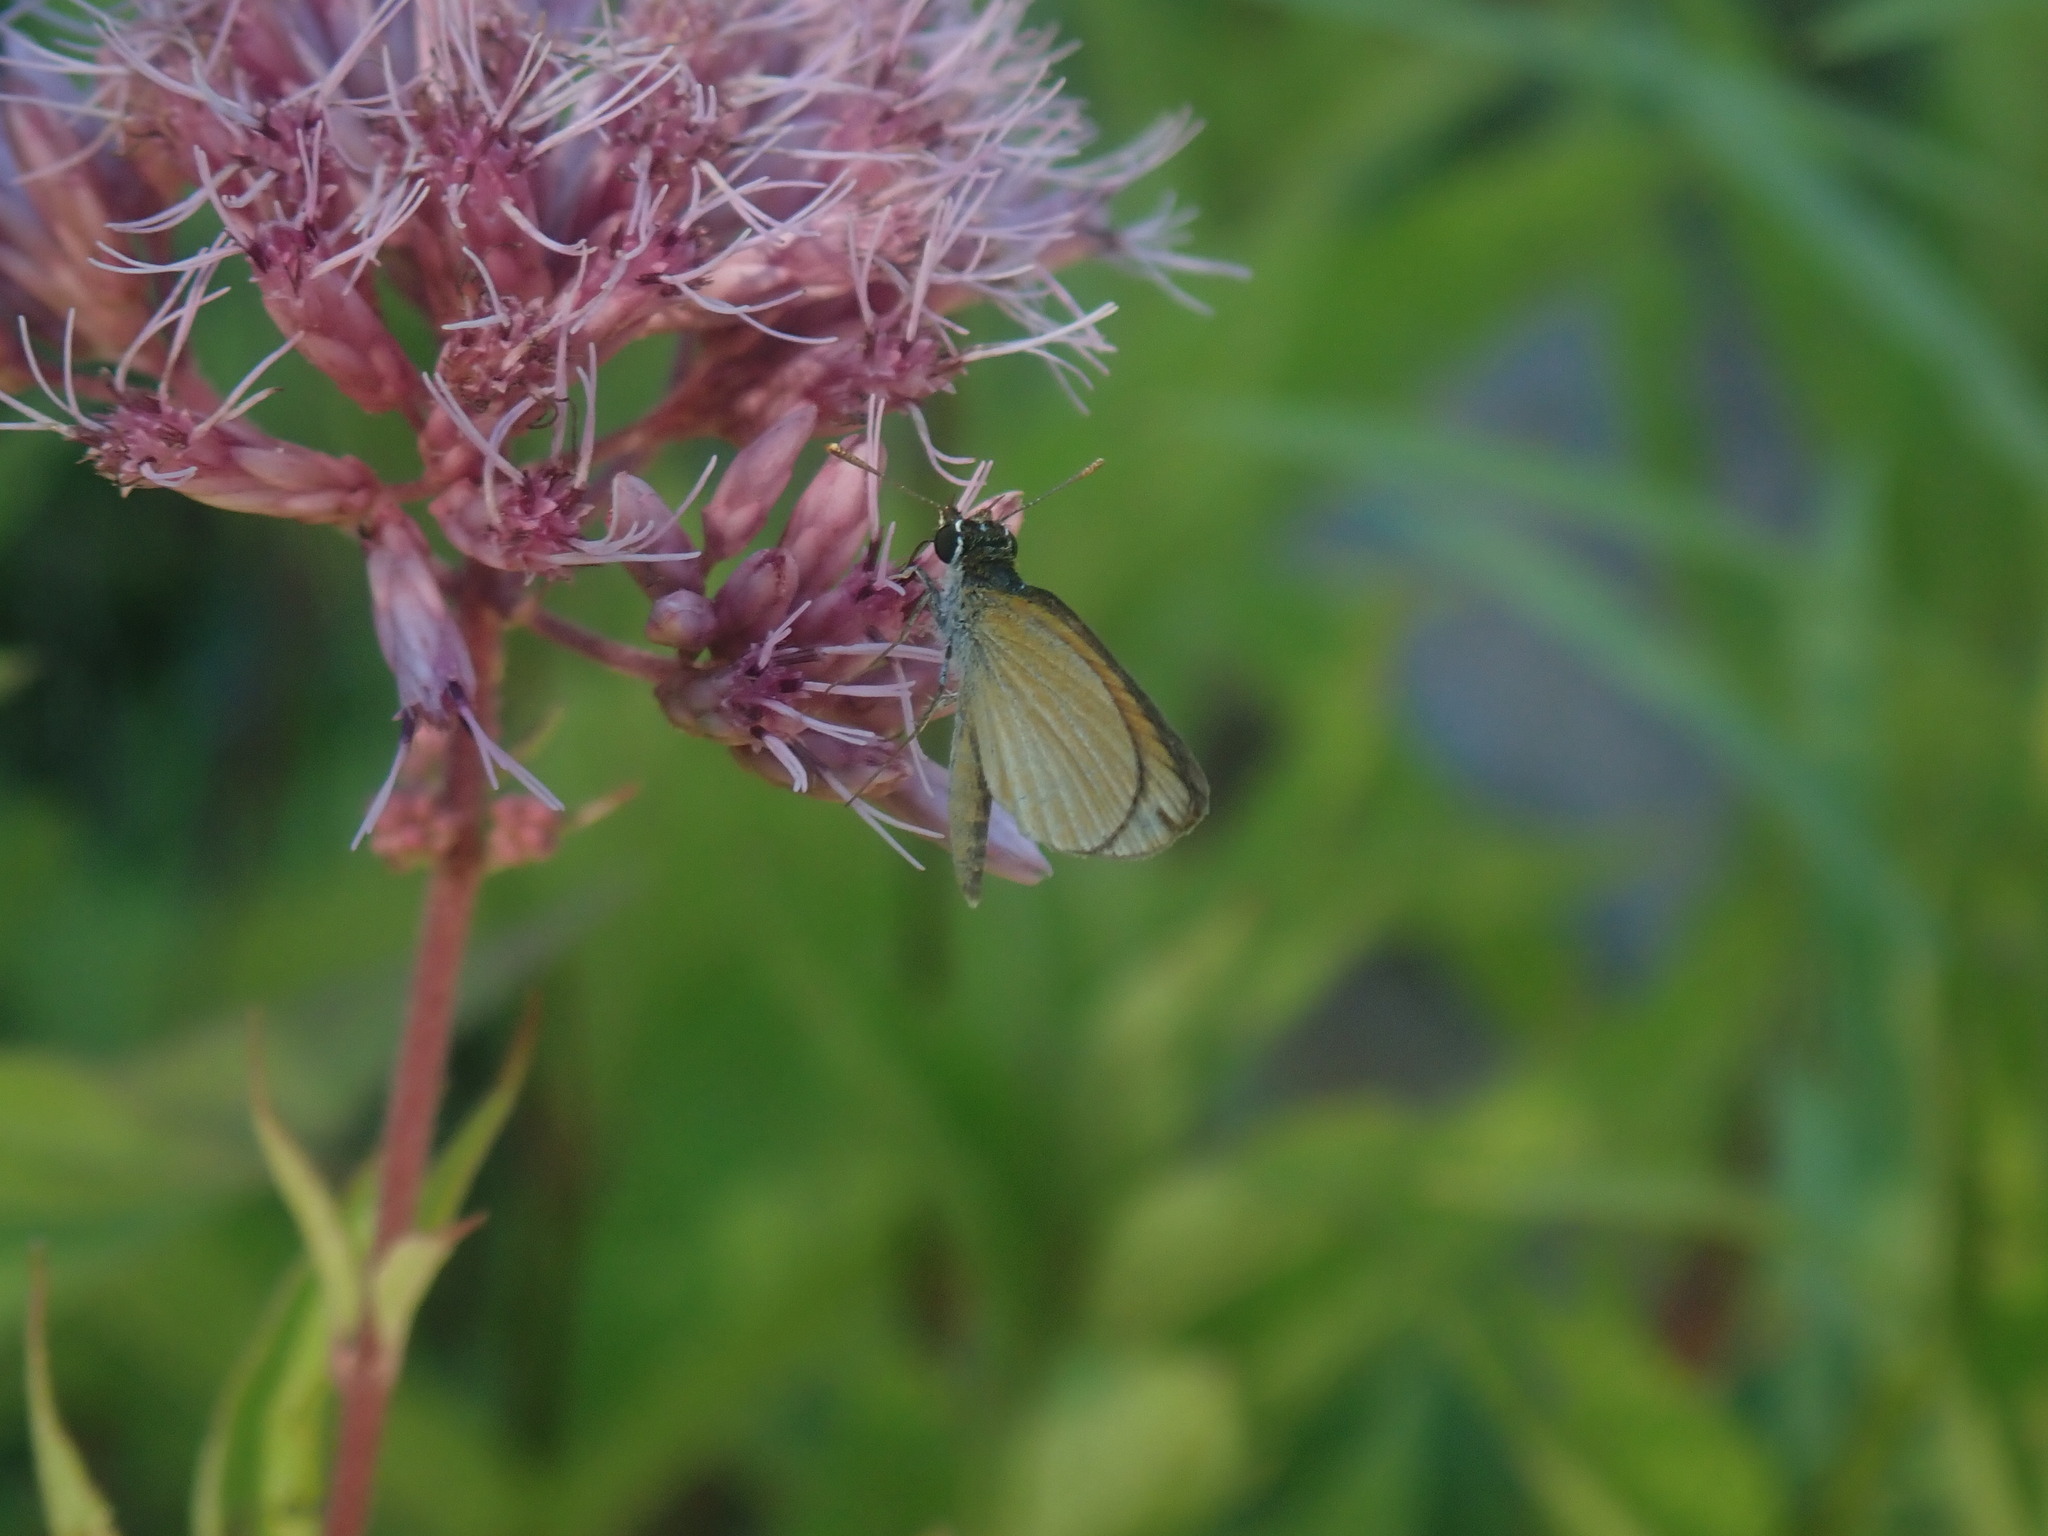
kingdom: Animalia
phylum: Arthropoda
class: Insecta
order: Lepidoptera
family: Hesperiidae
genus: Ancyloxypha
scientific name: Ancyloxypha numitor
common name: Least skipper
